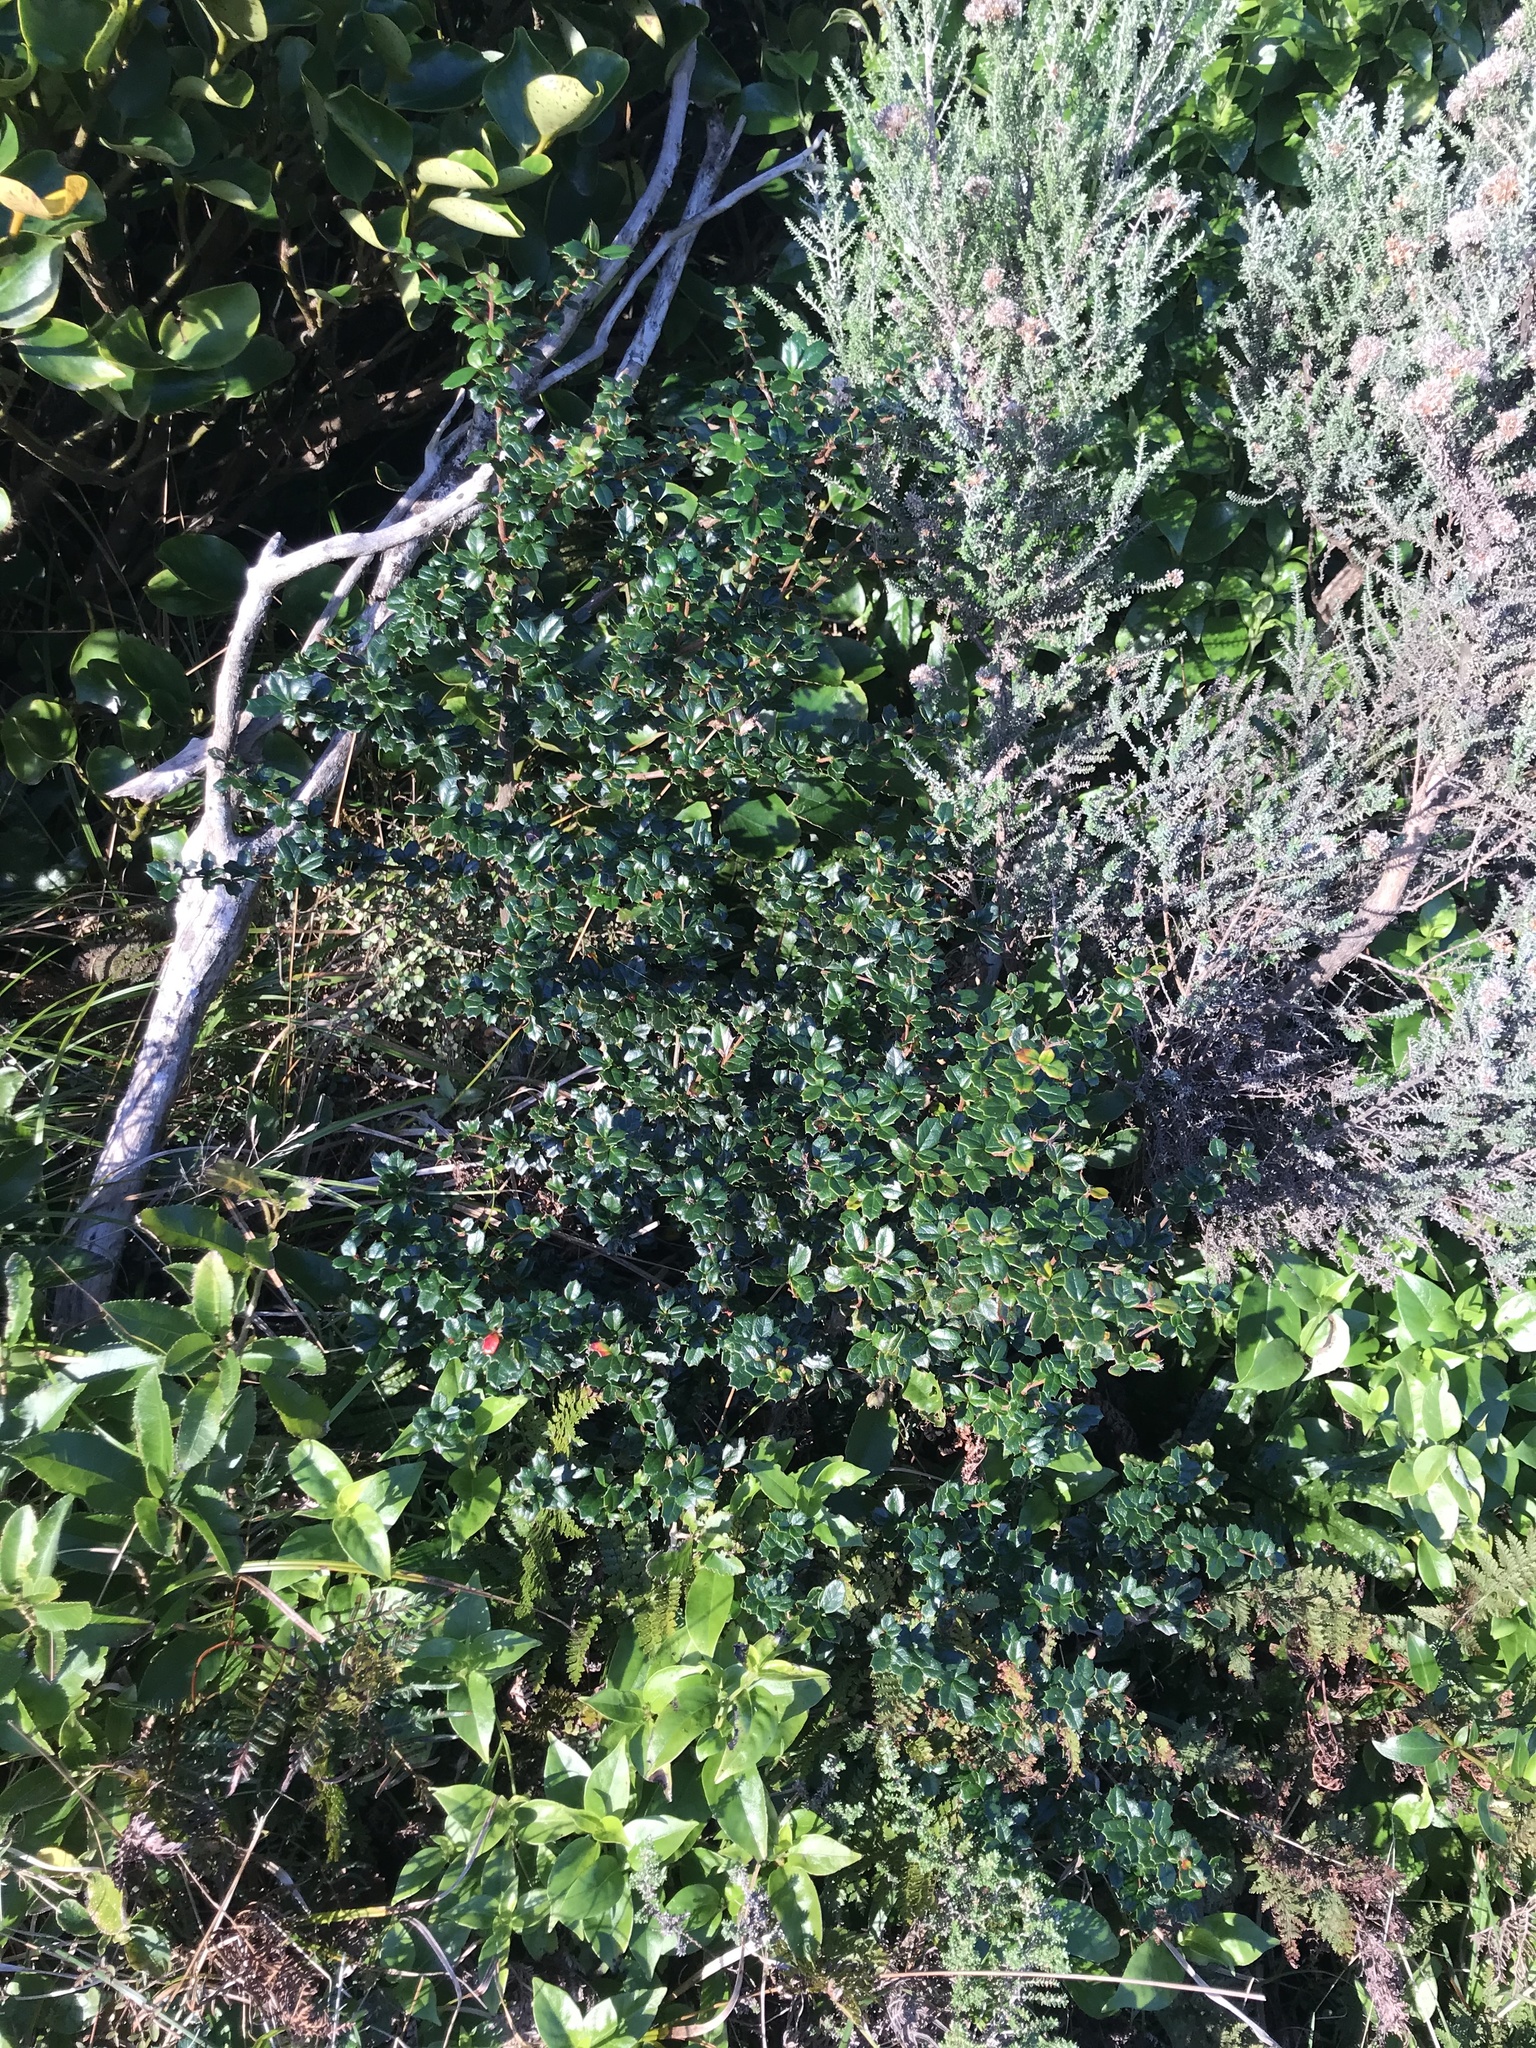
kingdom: Plantae
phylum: Tracheophyta
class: Magnoliopsida
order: Ranunculales
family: Berberidaceae
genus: Berberis
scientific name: Berberis darwinii
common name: Darwin's barberry
